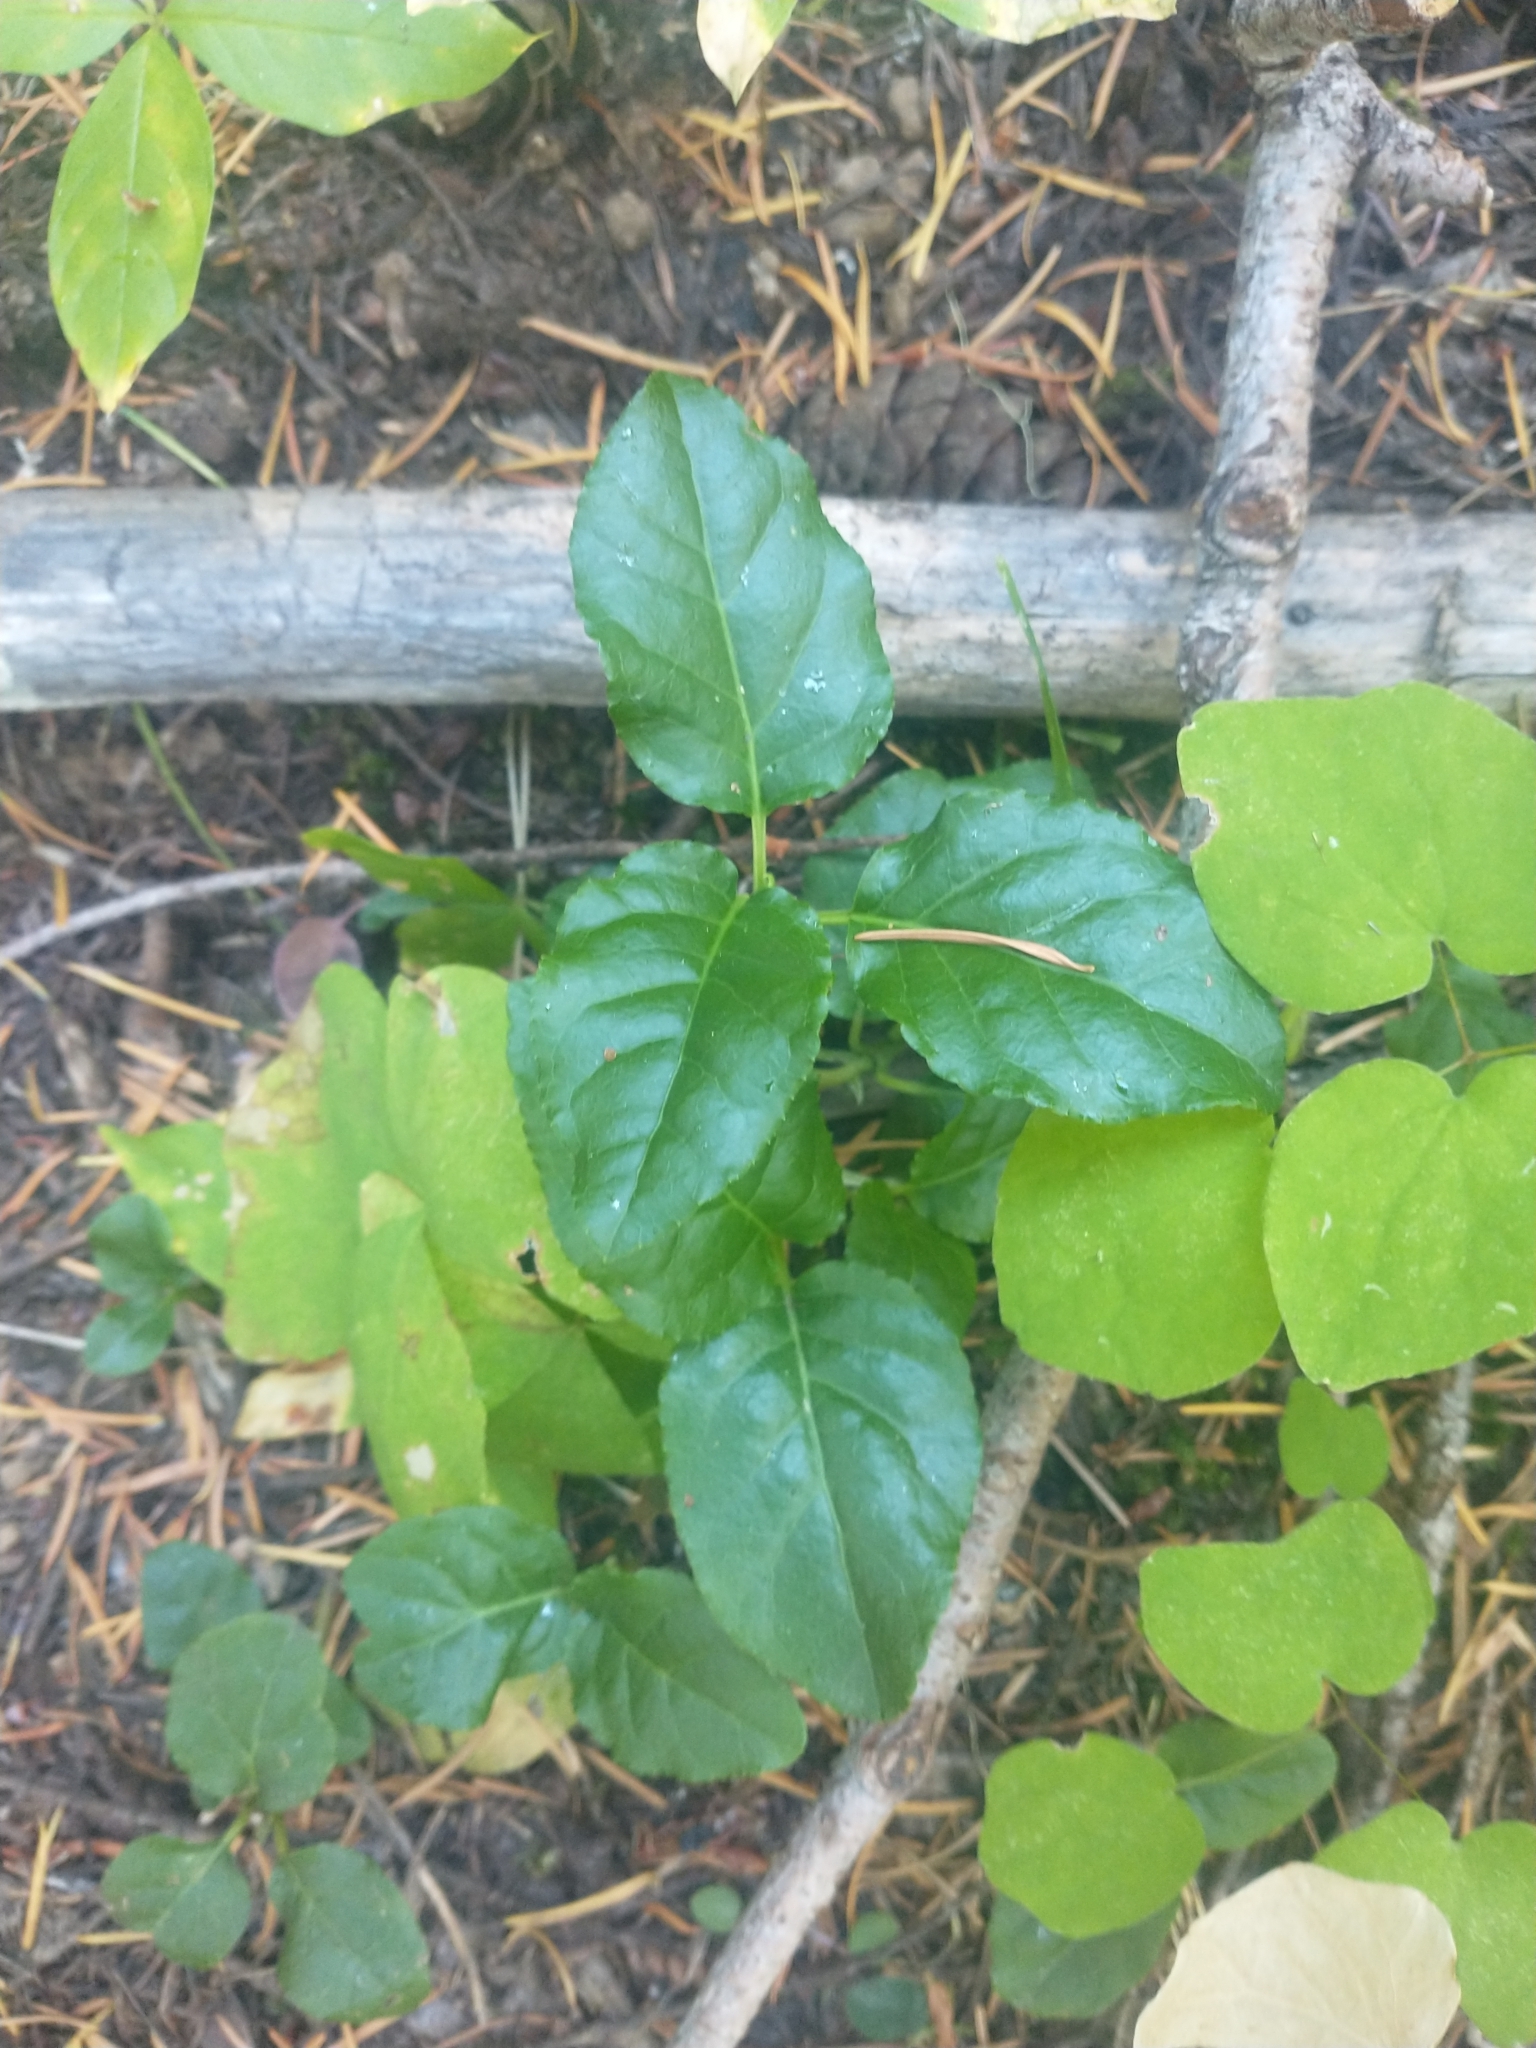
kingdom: Plantae
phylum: Tracheophyta
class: Magnoliopsida
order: Ericales
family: Ericaceae
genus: Orthilia
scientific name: Orthilia secunda
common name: One-sided orthilia
